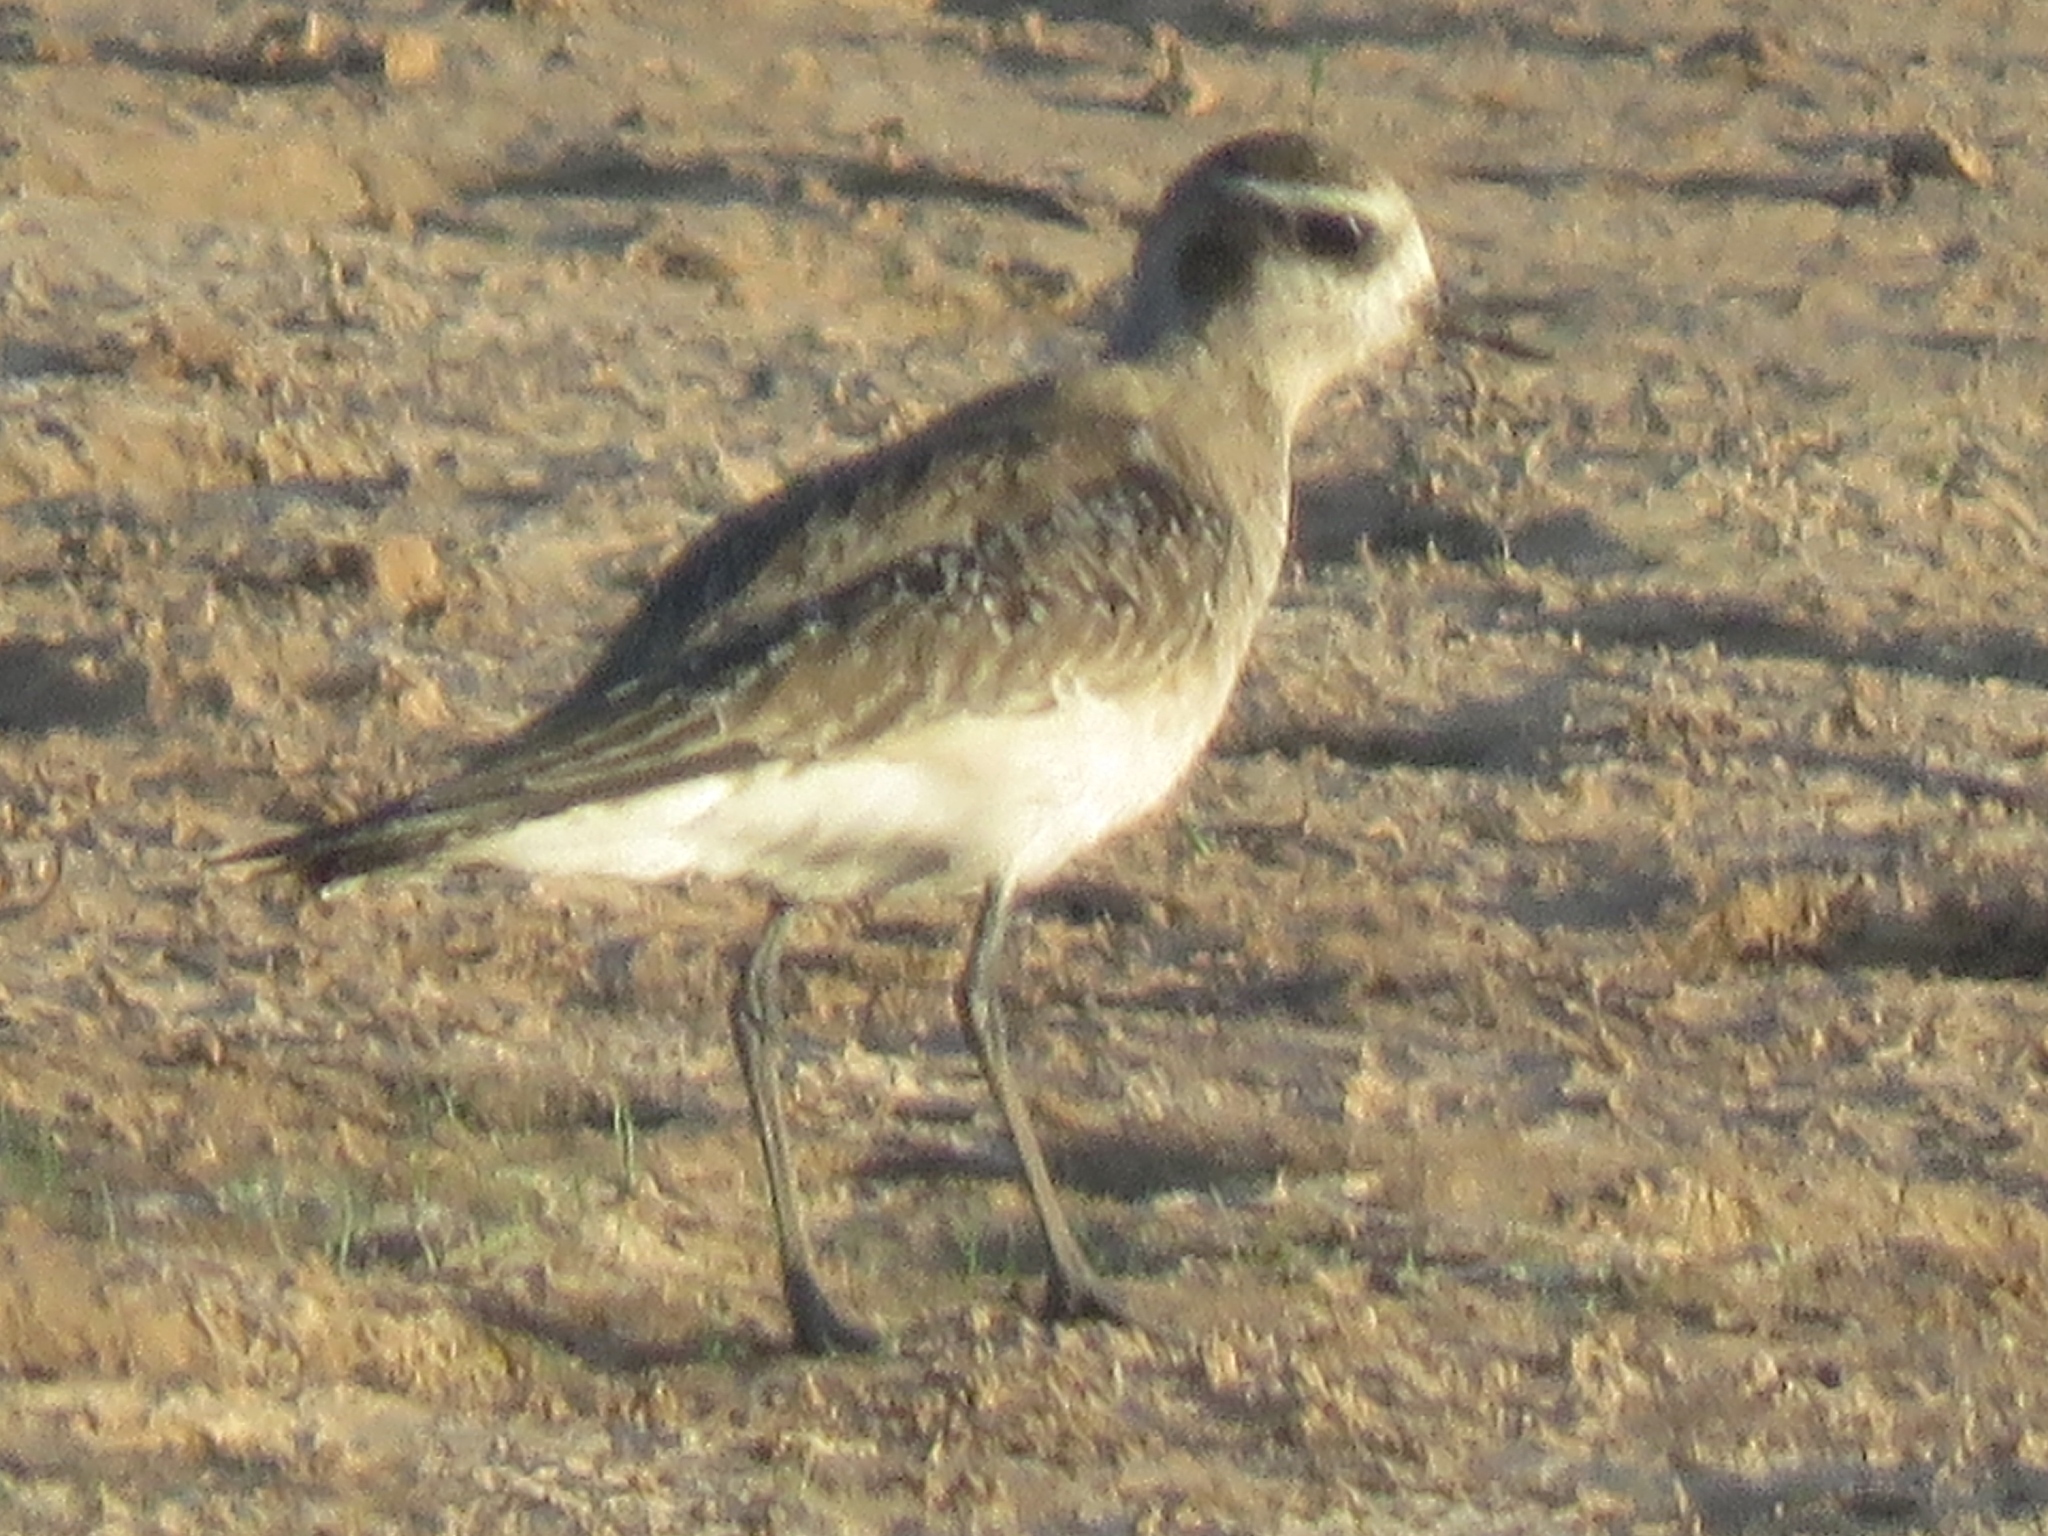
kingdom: Animalia
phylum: Chordata
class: Aves
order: Charadriiformes
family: Charadriidae
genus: Pluvialis
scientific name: Pluvialis dominica
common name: American golden plover
